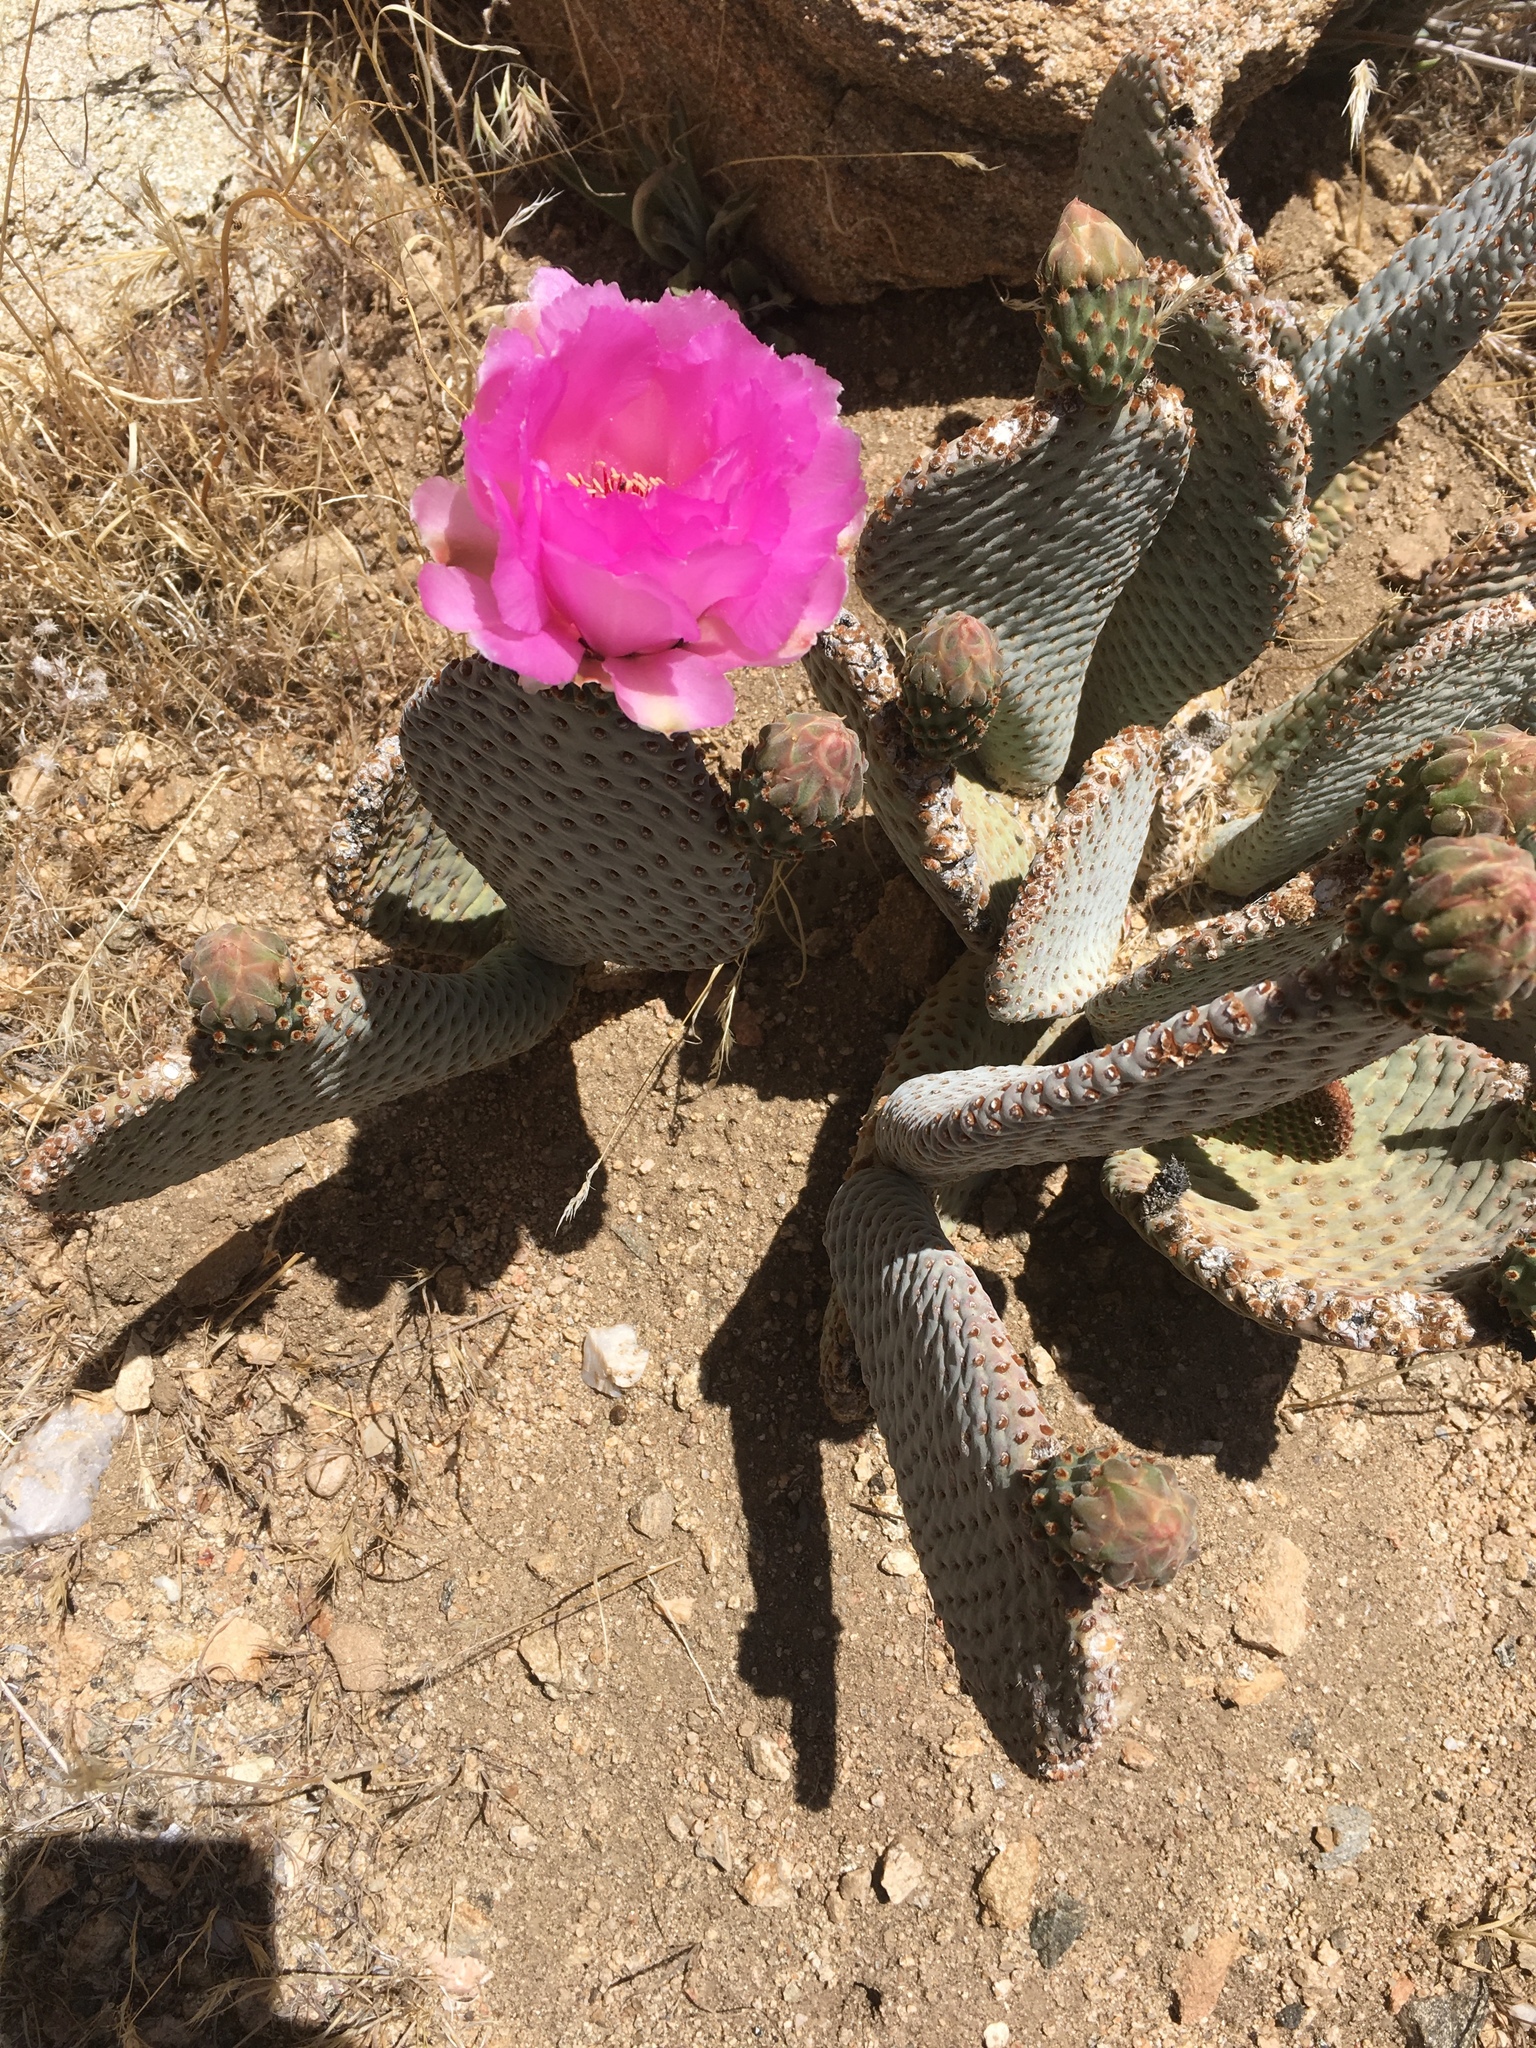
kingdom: Plantae
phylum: Tracheophyta
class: Magnoliopsida
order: Caryophyllales
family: Cactaceae
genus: Opuntia
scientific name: Opuntia basilaris
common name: Beavertail prickly-pear
